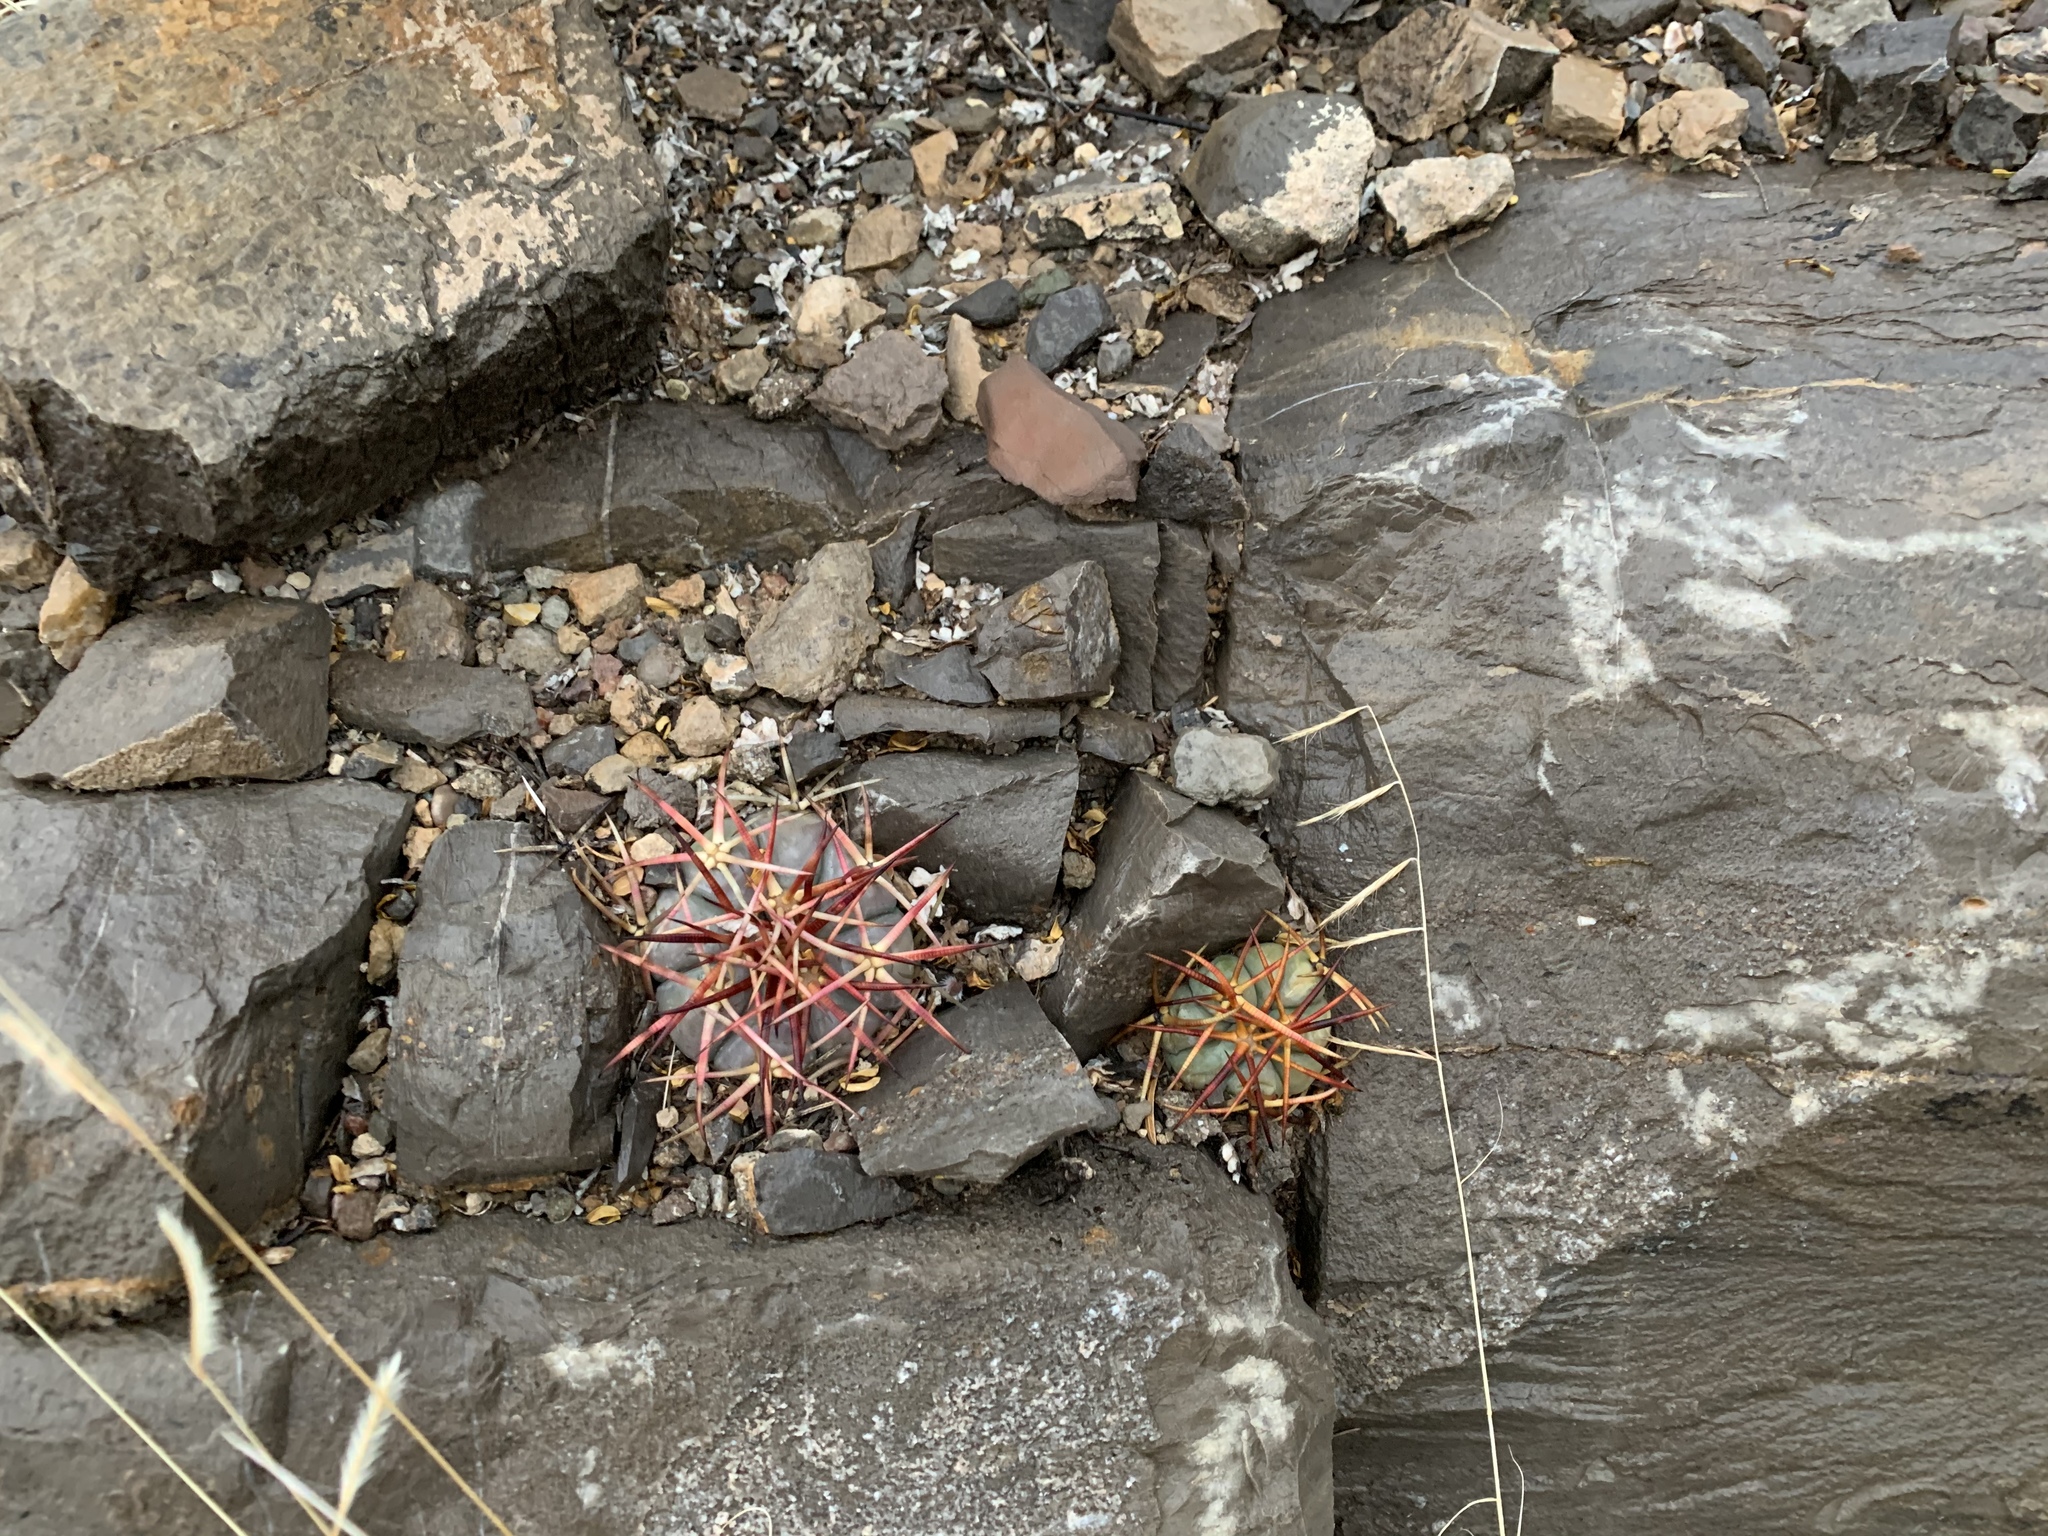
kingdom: Plantae
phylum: Tracheophyta
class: Magnoliopsida
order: Caryophyllales
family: Cactaceae
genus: Echinocactus
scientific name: Echinocactus horizonthalonius
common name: Devilshead
